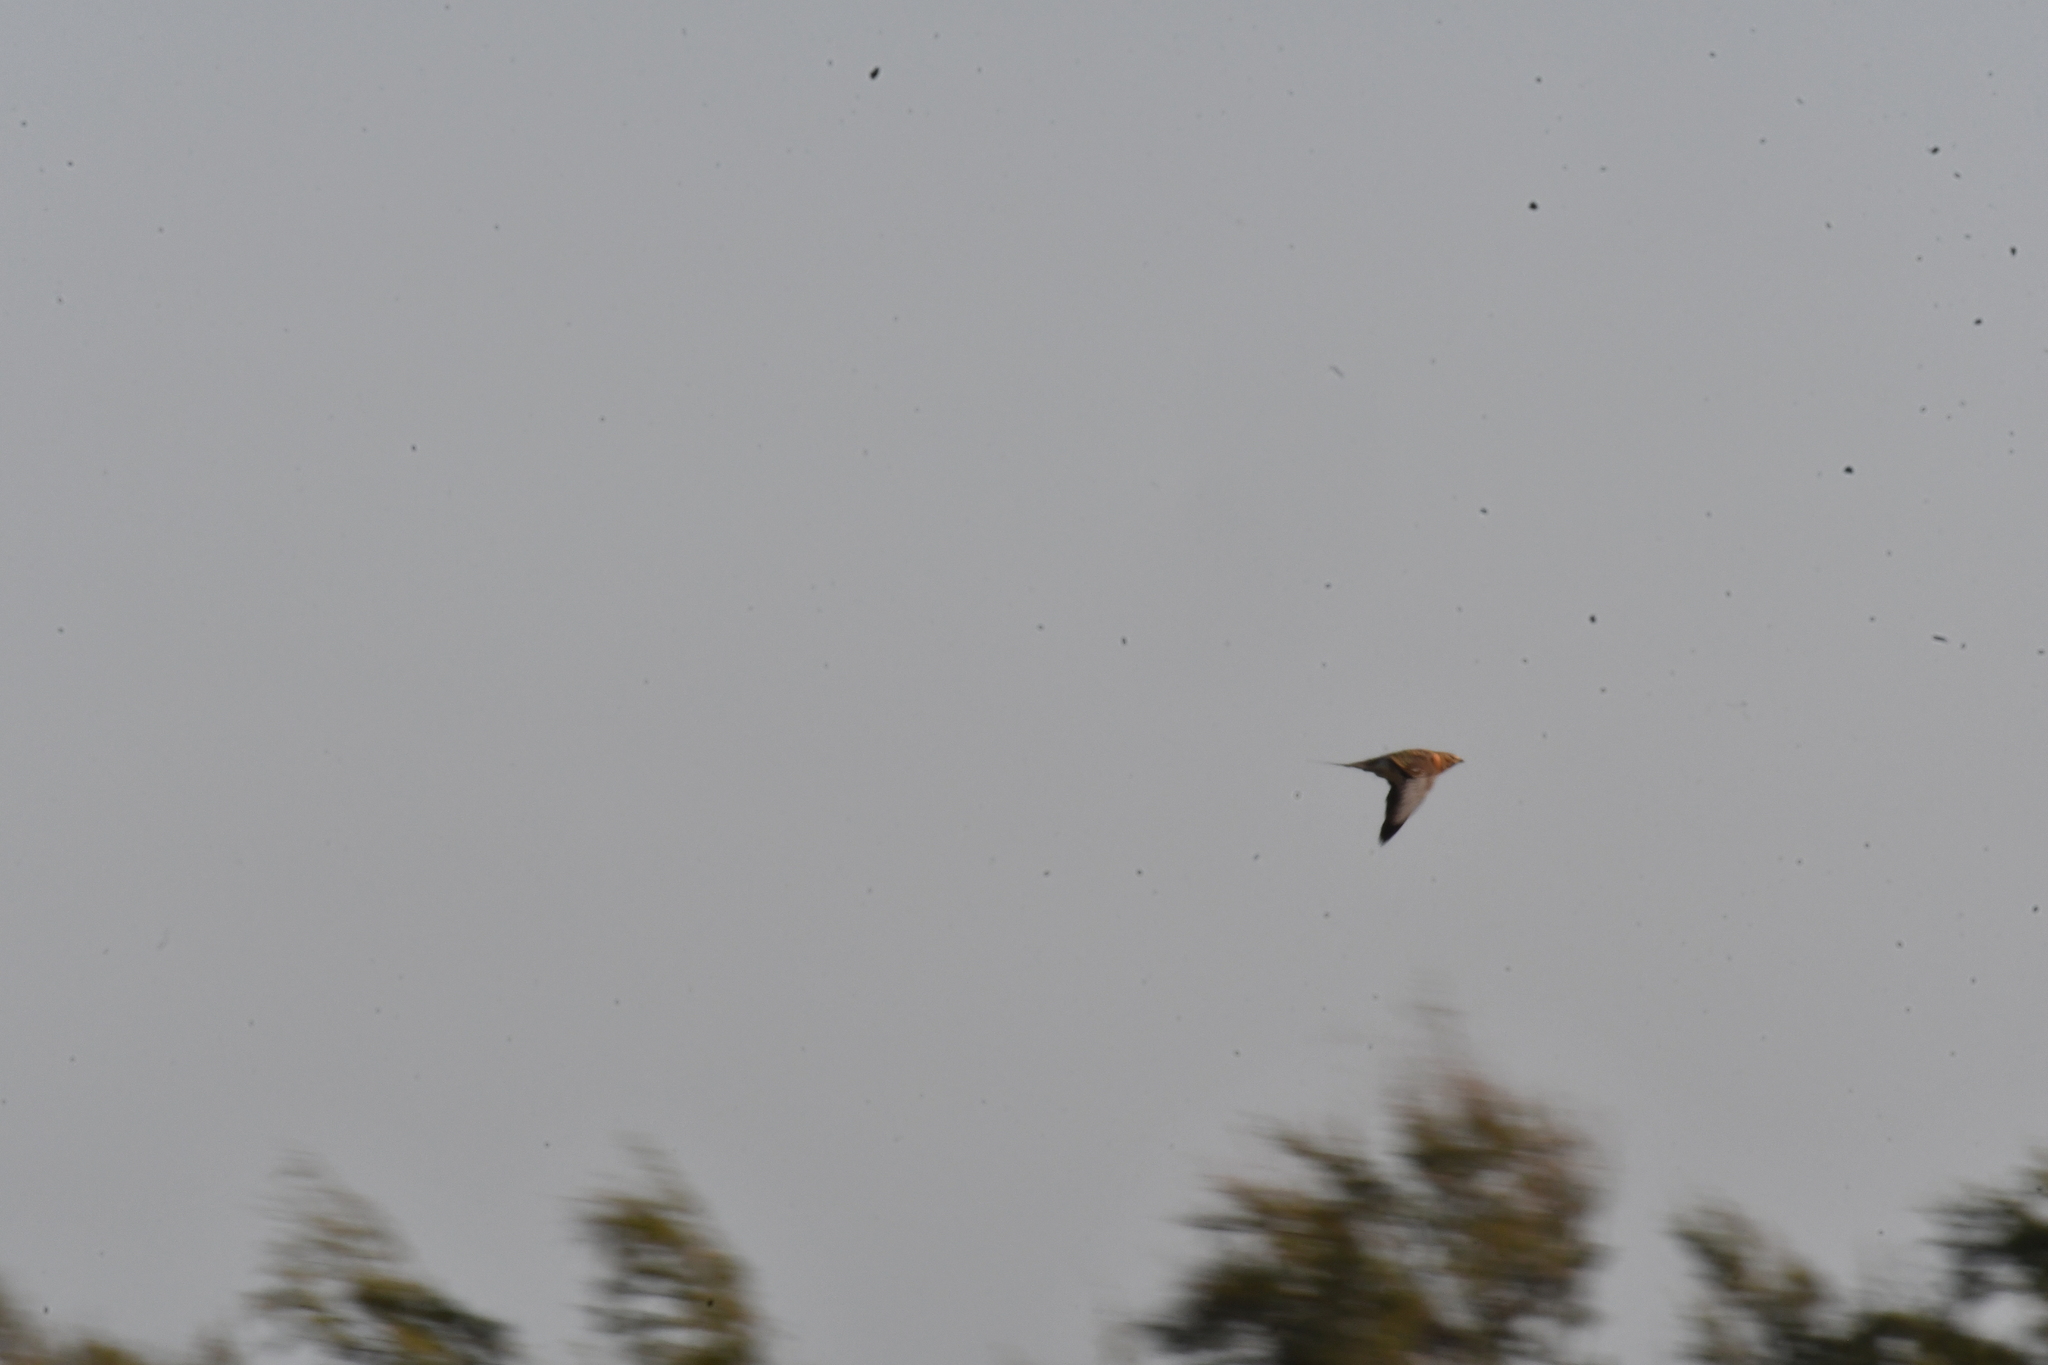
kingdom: Animalia
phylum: Chordata
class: Aves
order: Pteroclidiformes
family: Pteroclididae
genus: Pterocles
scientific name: Pterocles alchata
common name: Pin-tailed sandgrouse
